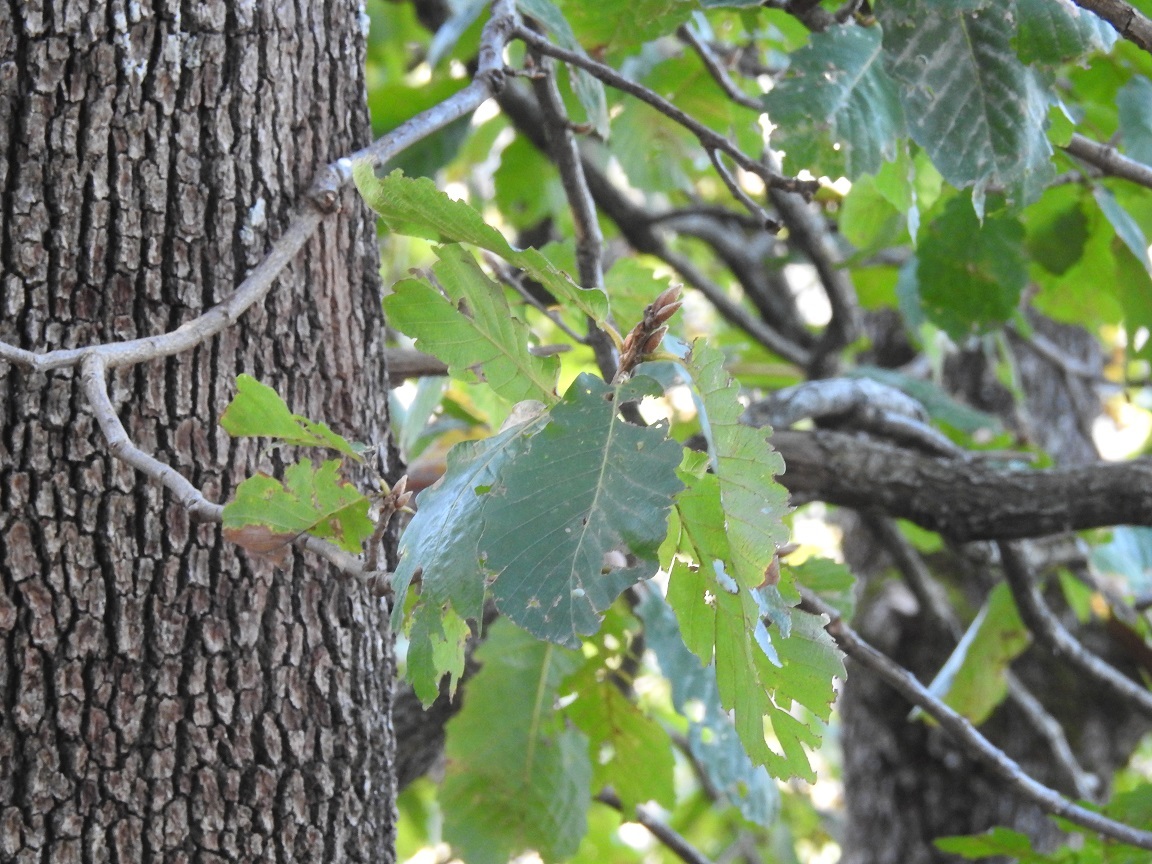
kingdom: Plantae
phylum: Tracheophyta
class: Magnoliopsida
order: Fagales
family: Fagaceae
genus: Quercus
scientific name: Quercus canariensis
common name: Algerian oak
